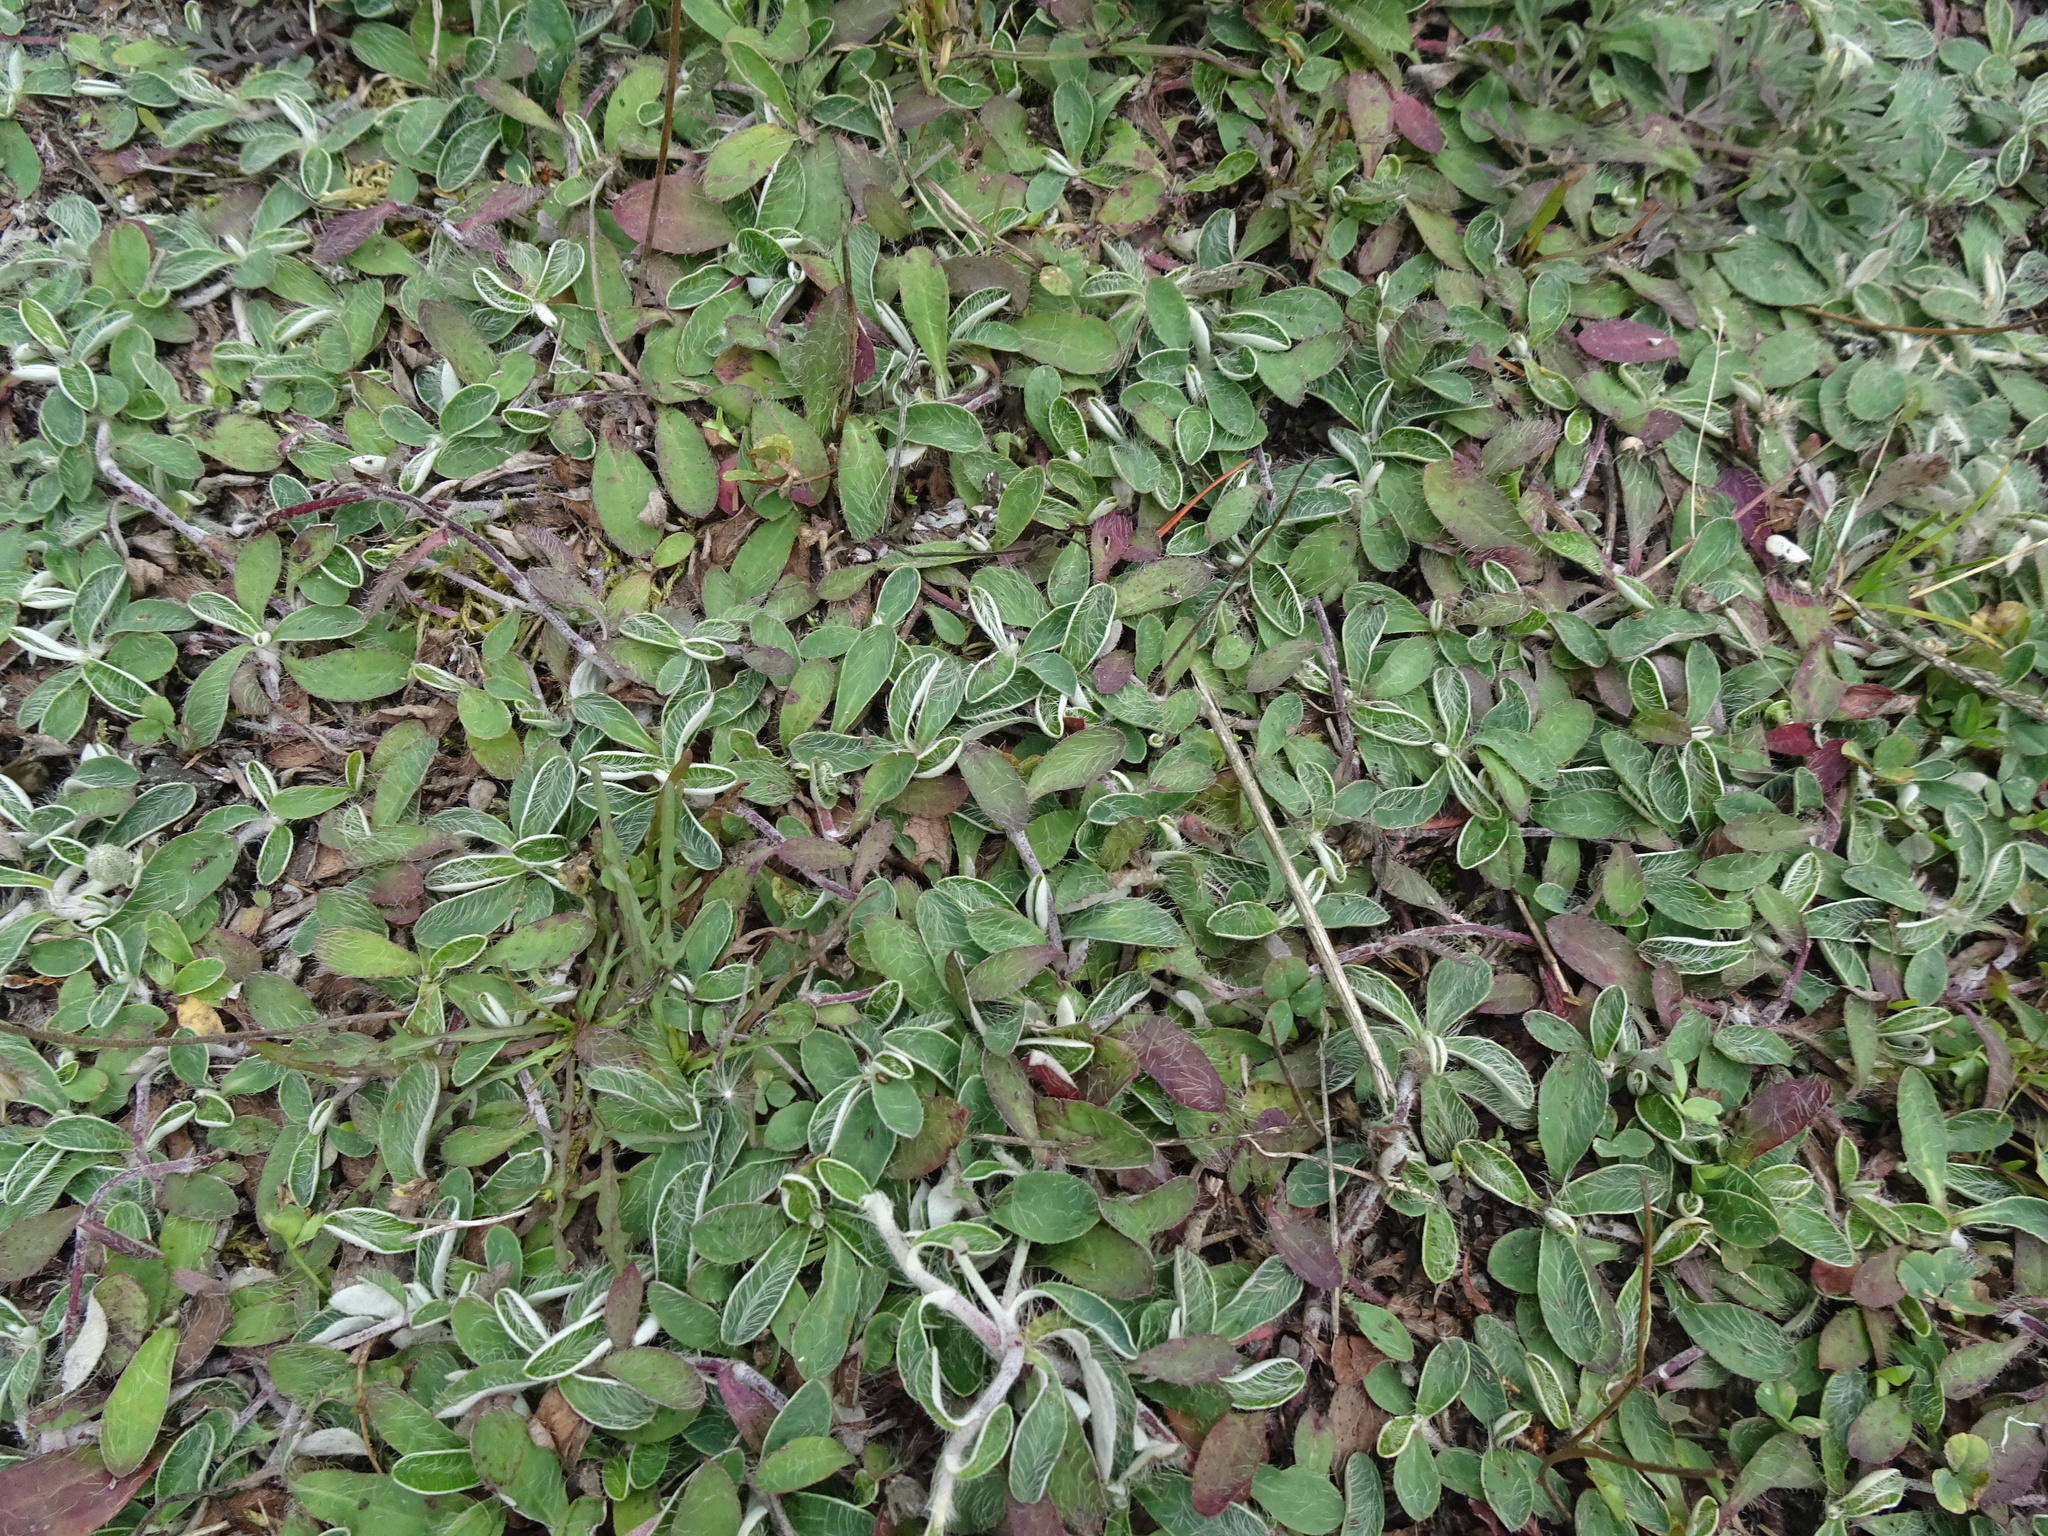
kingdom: Plantae
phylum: Tracheophyta
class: Magnoliopsida
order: Asterales
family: Asteraceae
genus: Pilosella
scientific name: Pilosella officinarum
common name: Mouse-ear hawkweed
